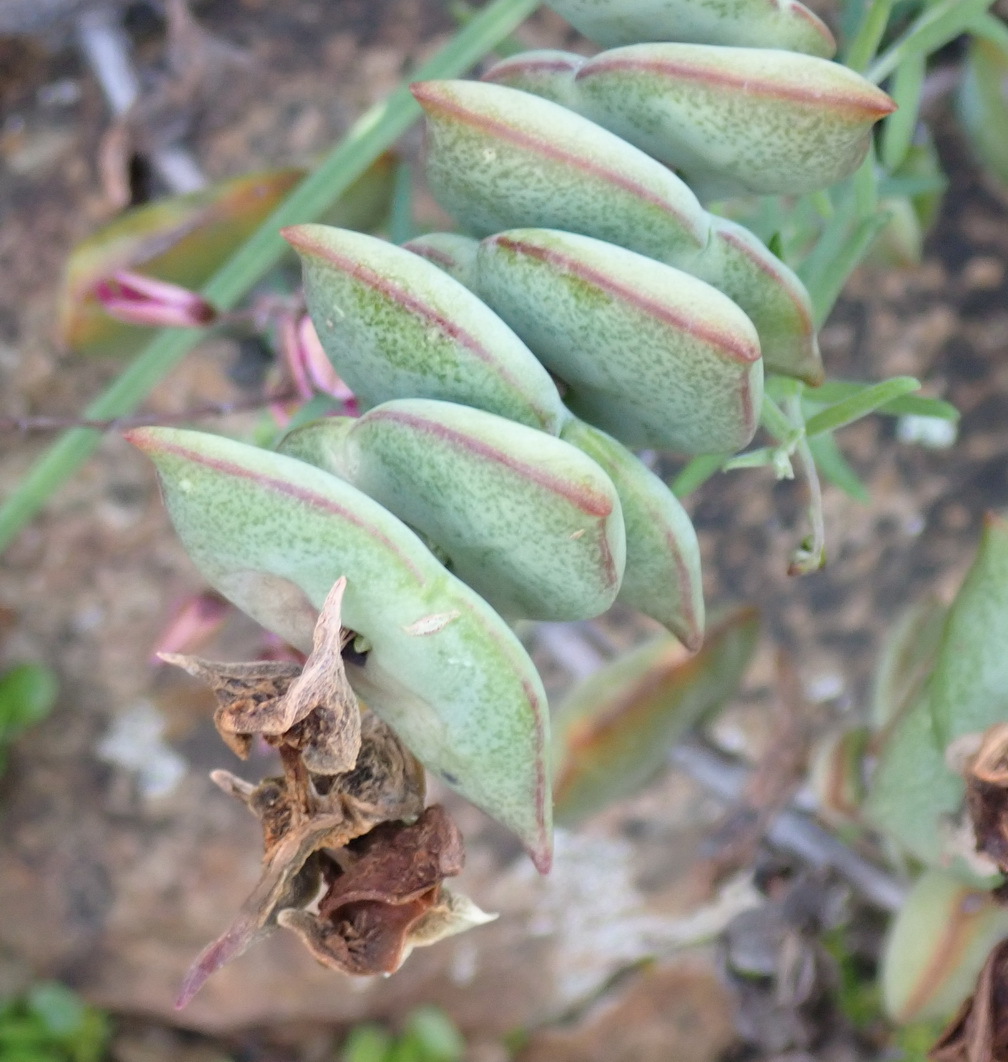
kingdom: Plantae
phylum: Tracheophyta
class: Magnoliopsida
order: Saxifragales
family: Crassulaceae
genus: Crassula
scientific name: Crassula perforata
